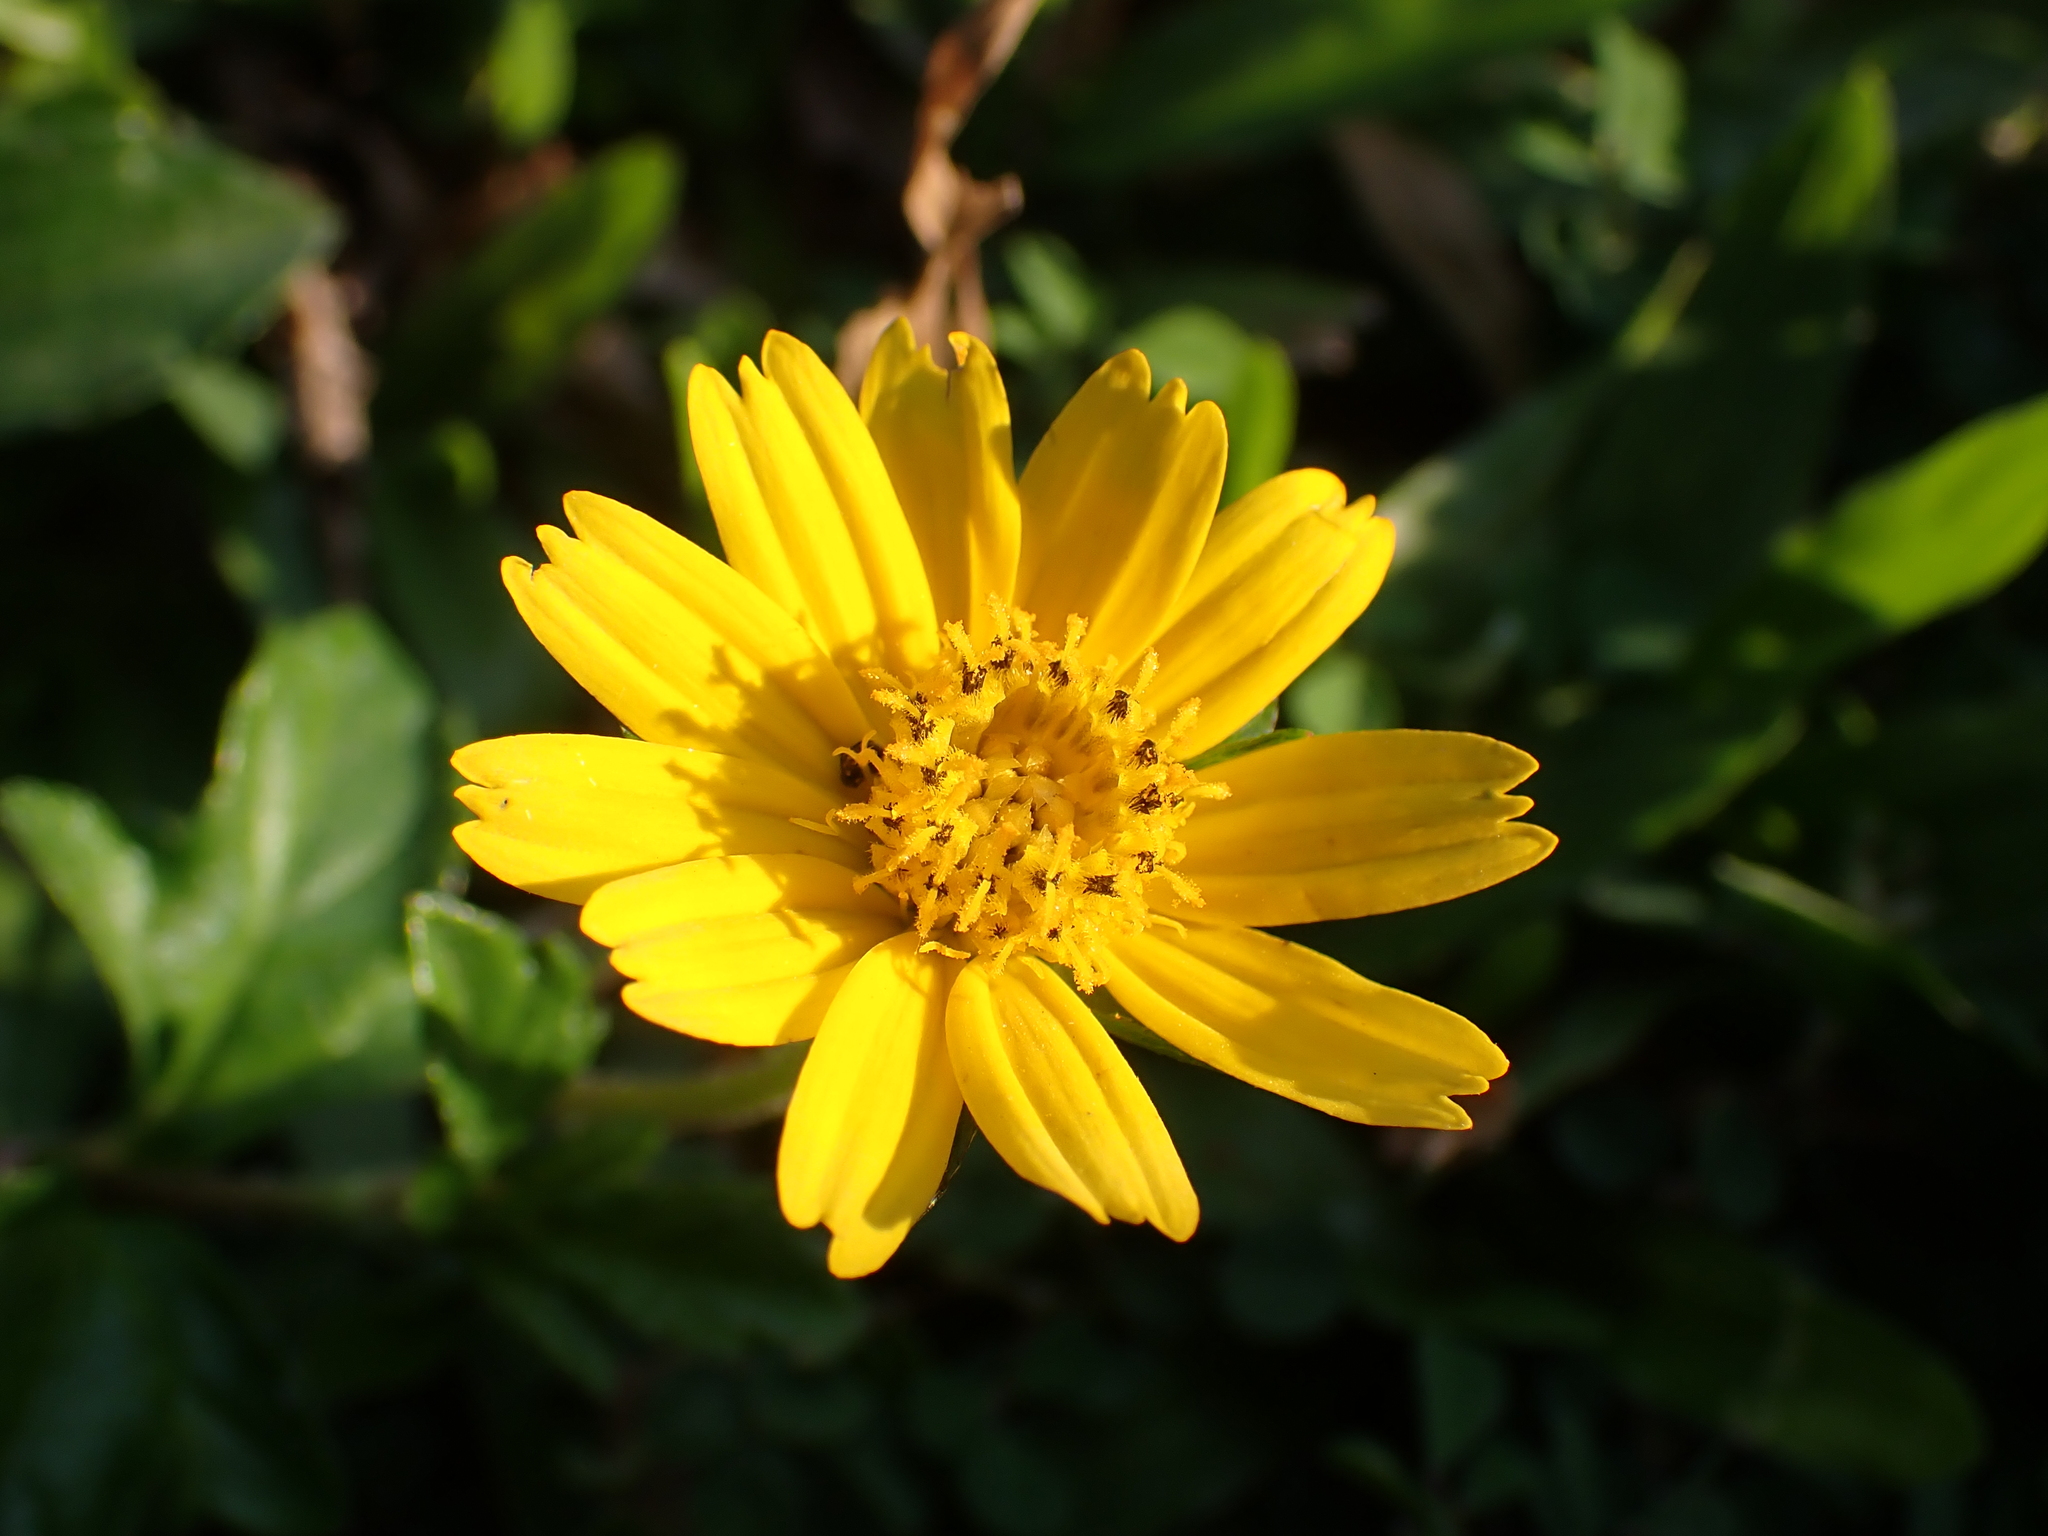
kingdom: Plantae
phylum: Tracheophyta
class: Magnoliopsida
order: Asterales
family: Asteraceae
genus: Sphagneticola
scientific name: Sphagneticola trilobata
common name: Bay biscayne creeping-oxeye
